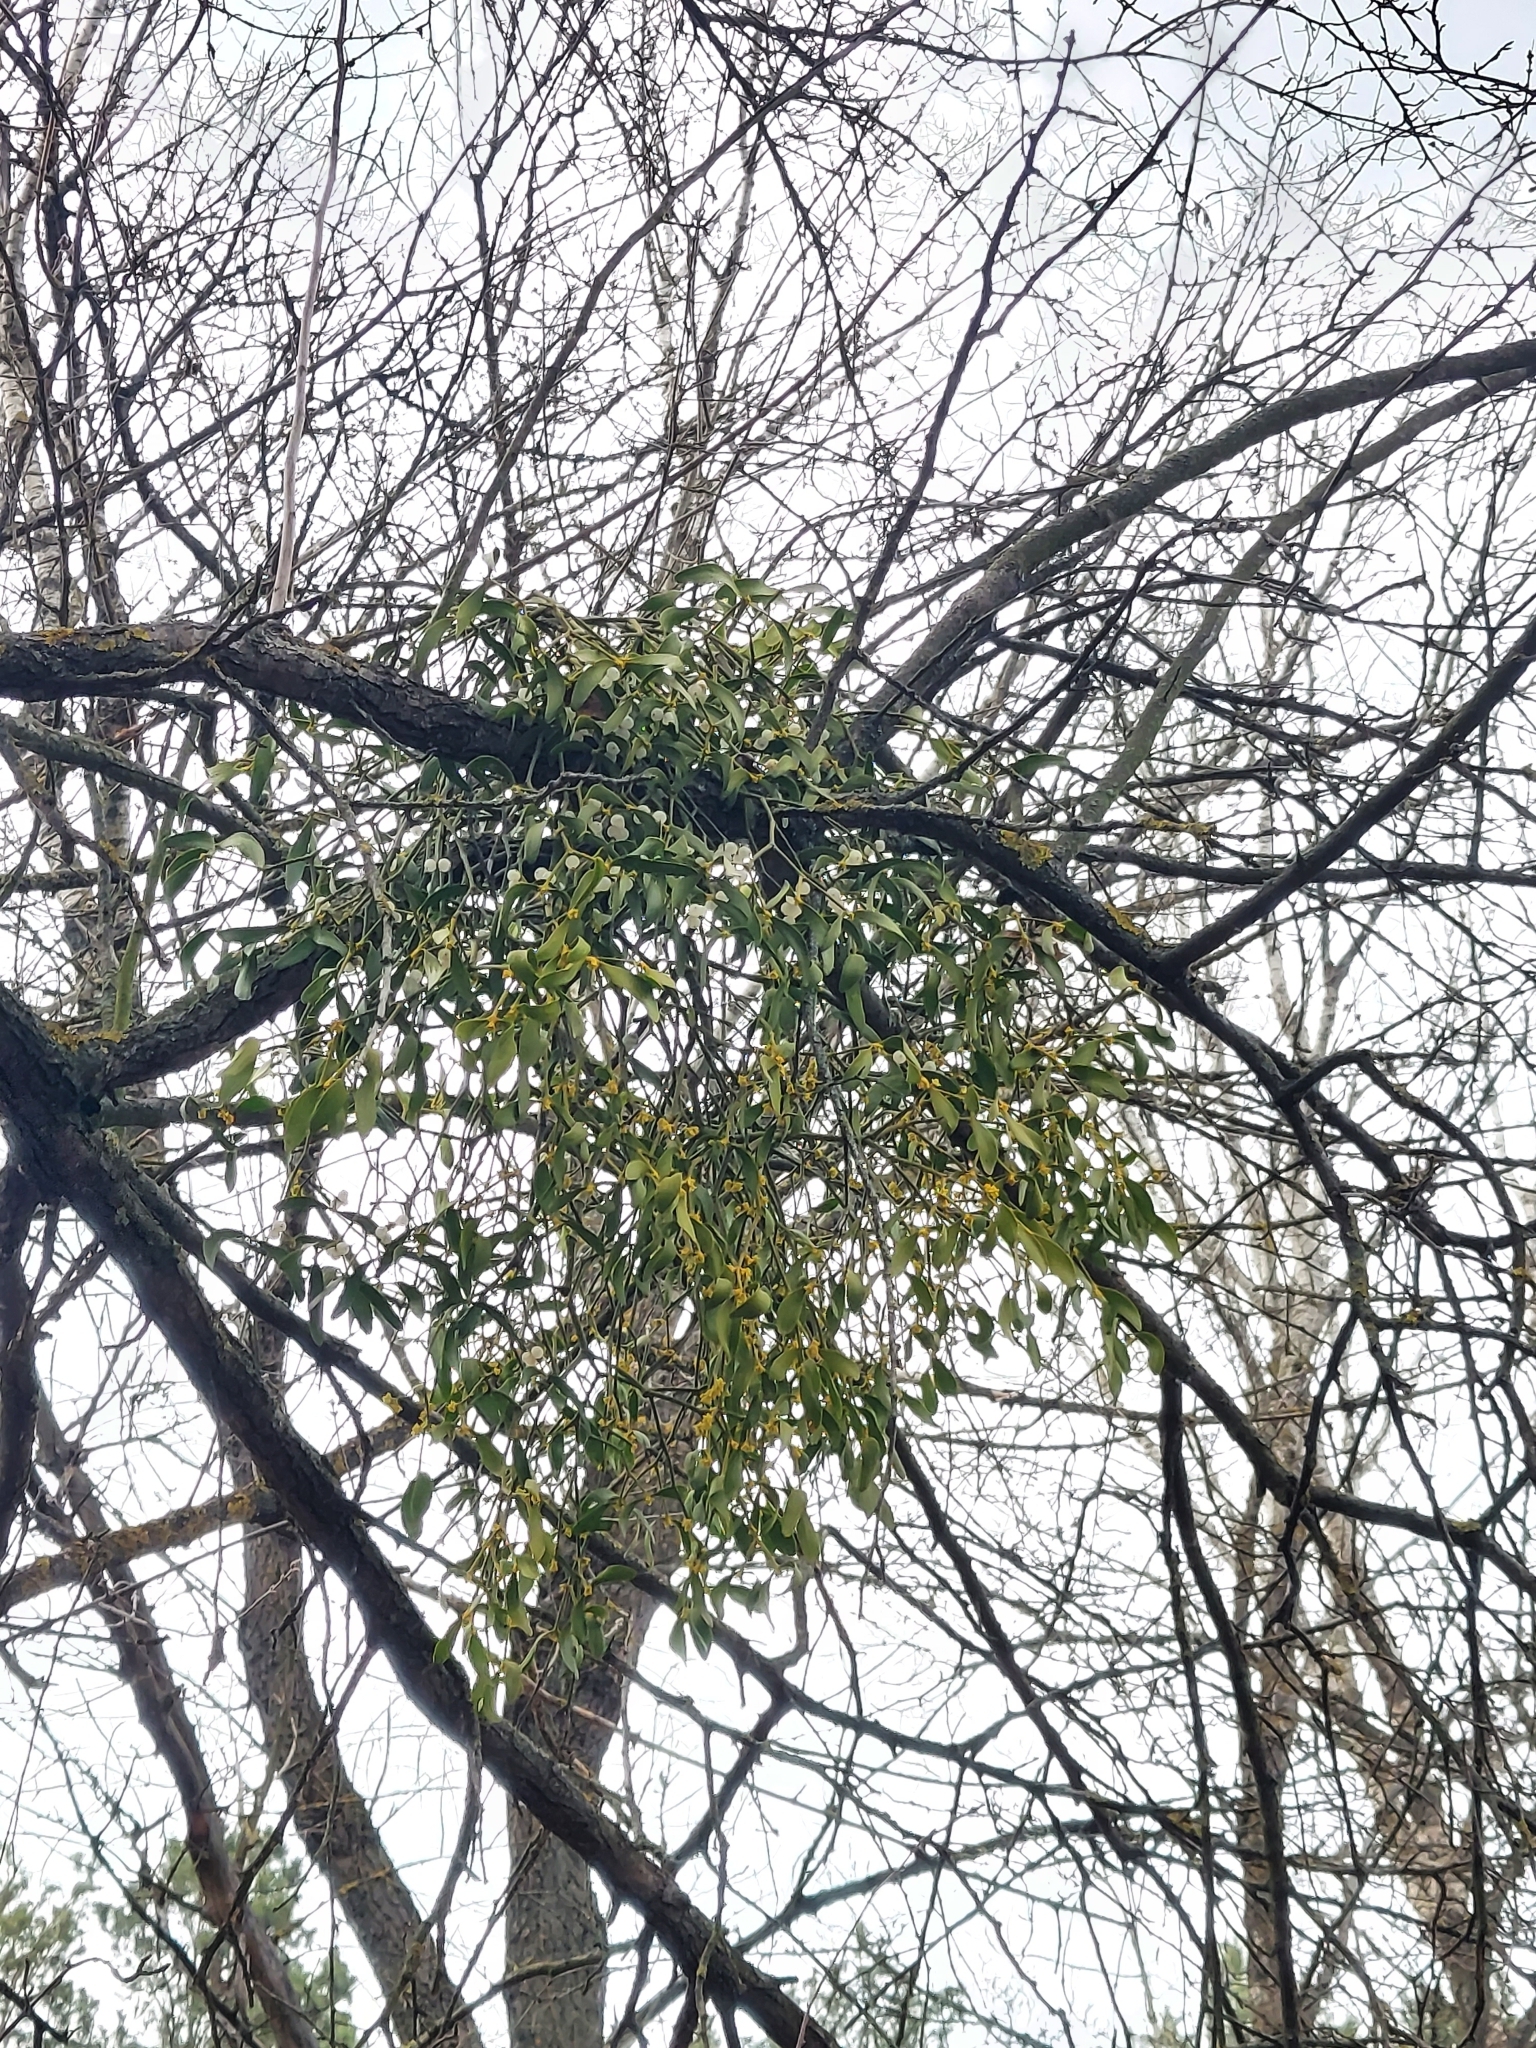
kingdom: Plantae
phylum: Tracheophyta
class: Magnoliopsida
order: Santalales
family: Viscaceae
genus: Viscum
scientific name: Viscum album
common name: Mistletoe
